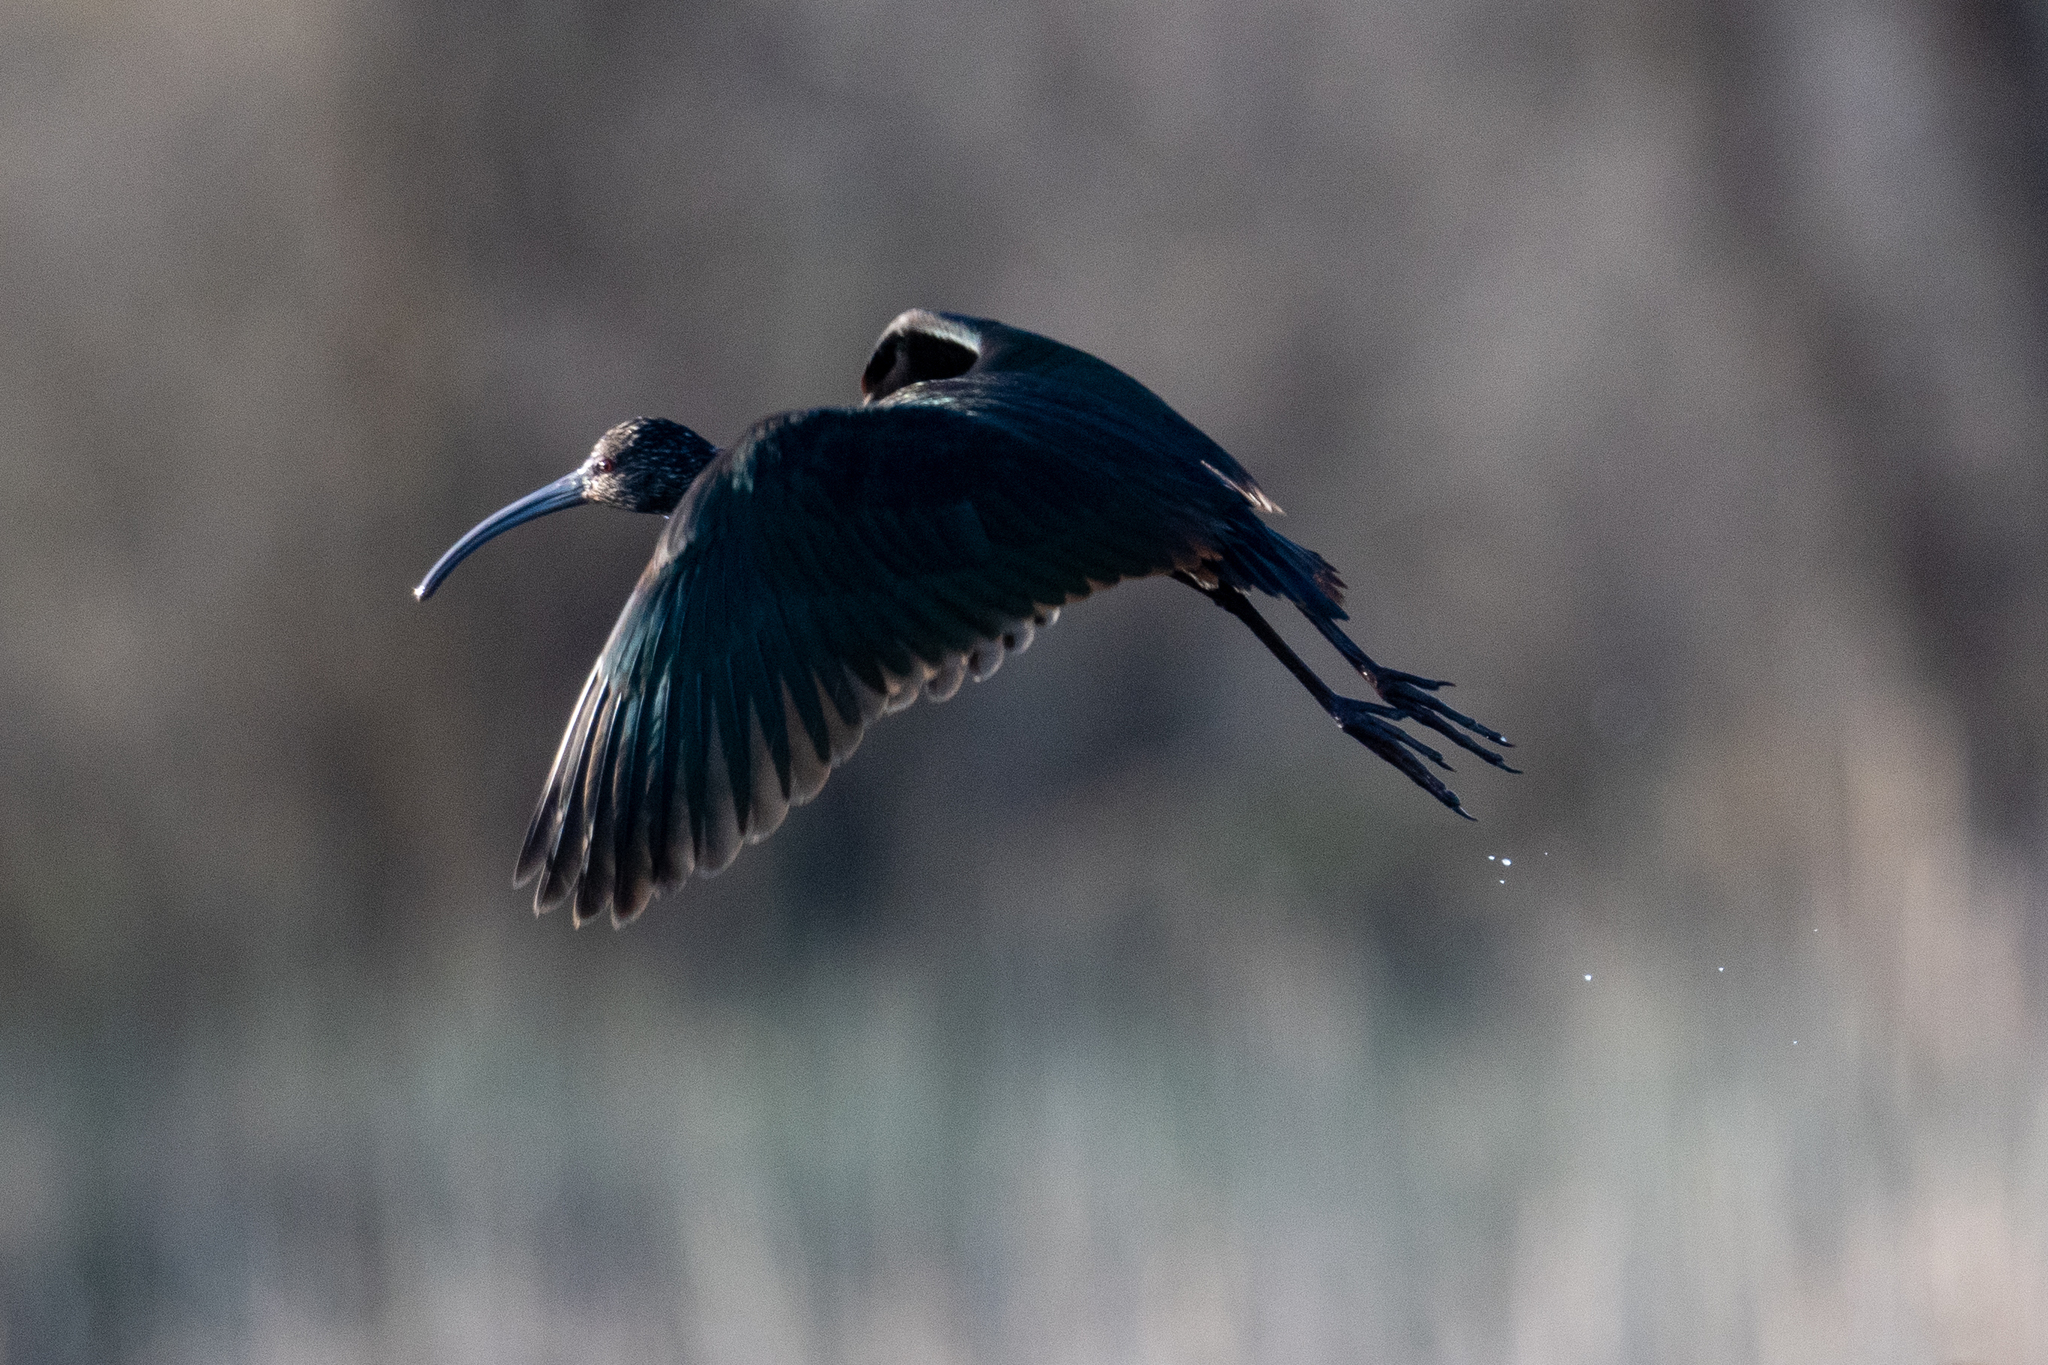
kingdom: Animalia
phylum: Chordata
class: Aves
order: Pelecaniformes
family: Threskiornithidae
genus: Plegadis
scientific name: Plegadis chihi
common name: White-faced ibis
